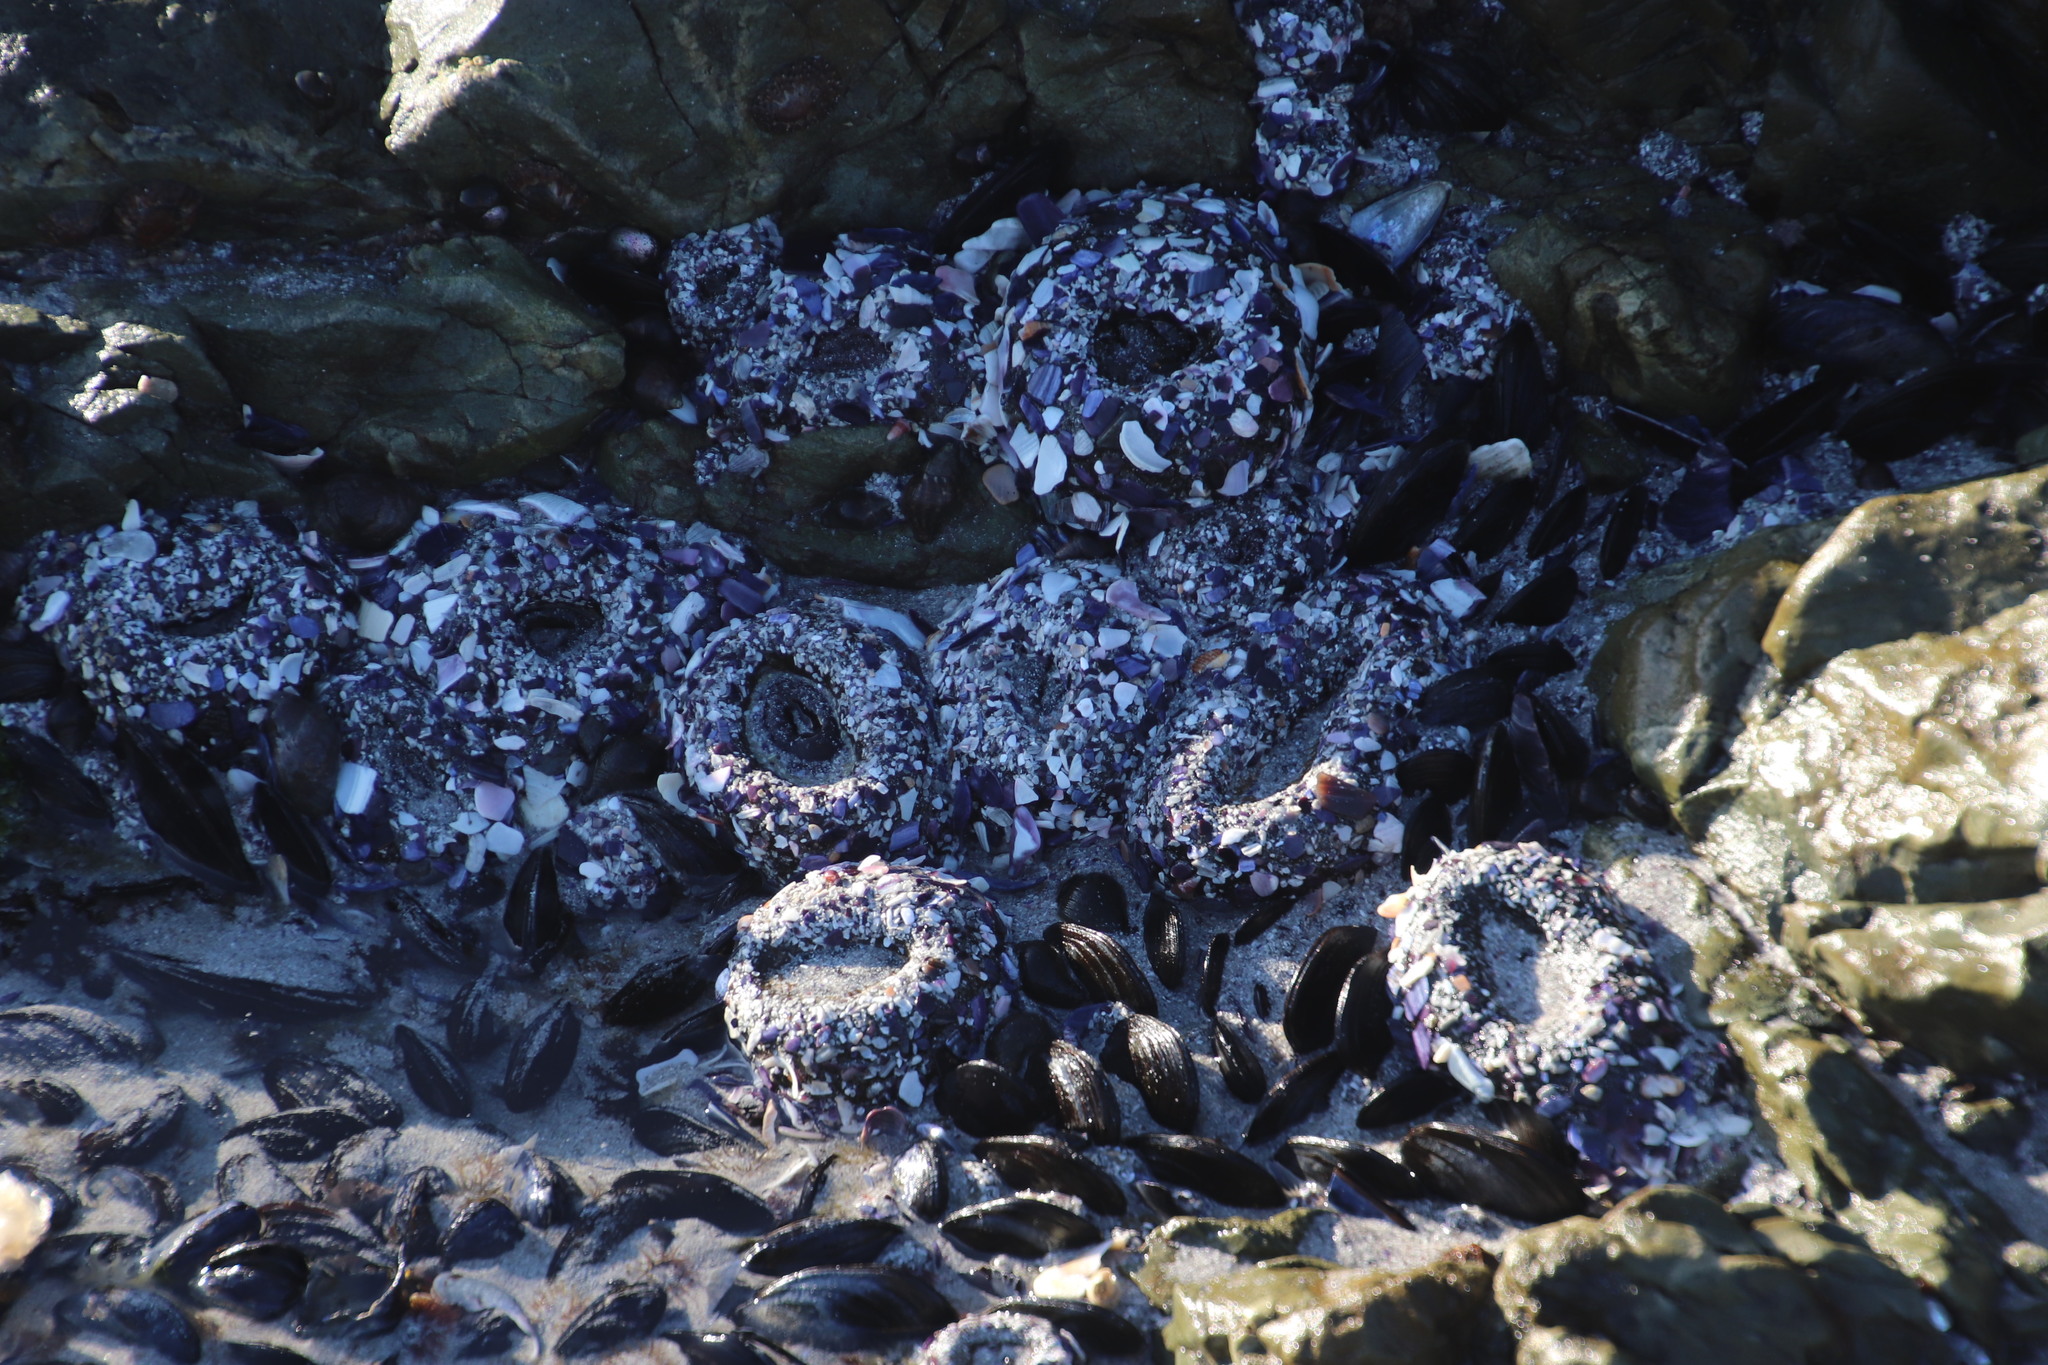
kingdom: Animalia
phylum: Cnidaria
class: Anthozoa
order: Actiniaria
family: Actiniidae
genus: Bunodactis
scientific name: Bunodactis reynaudi
